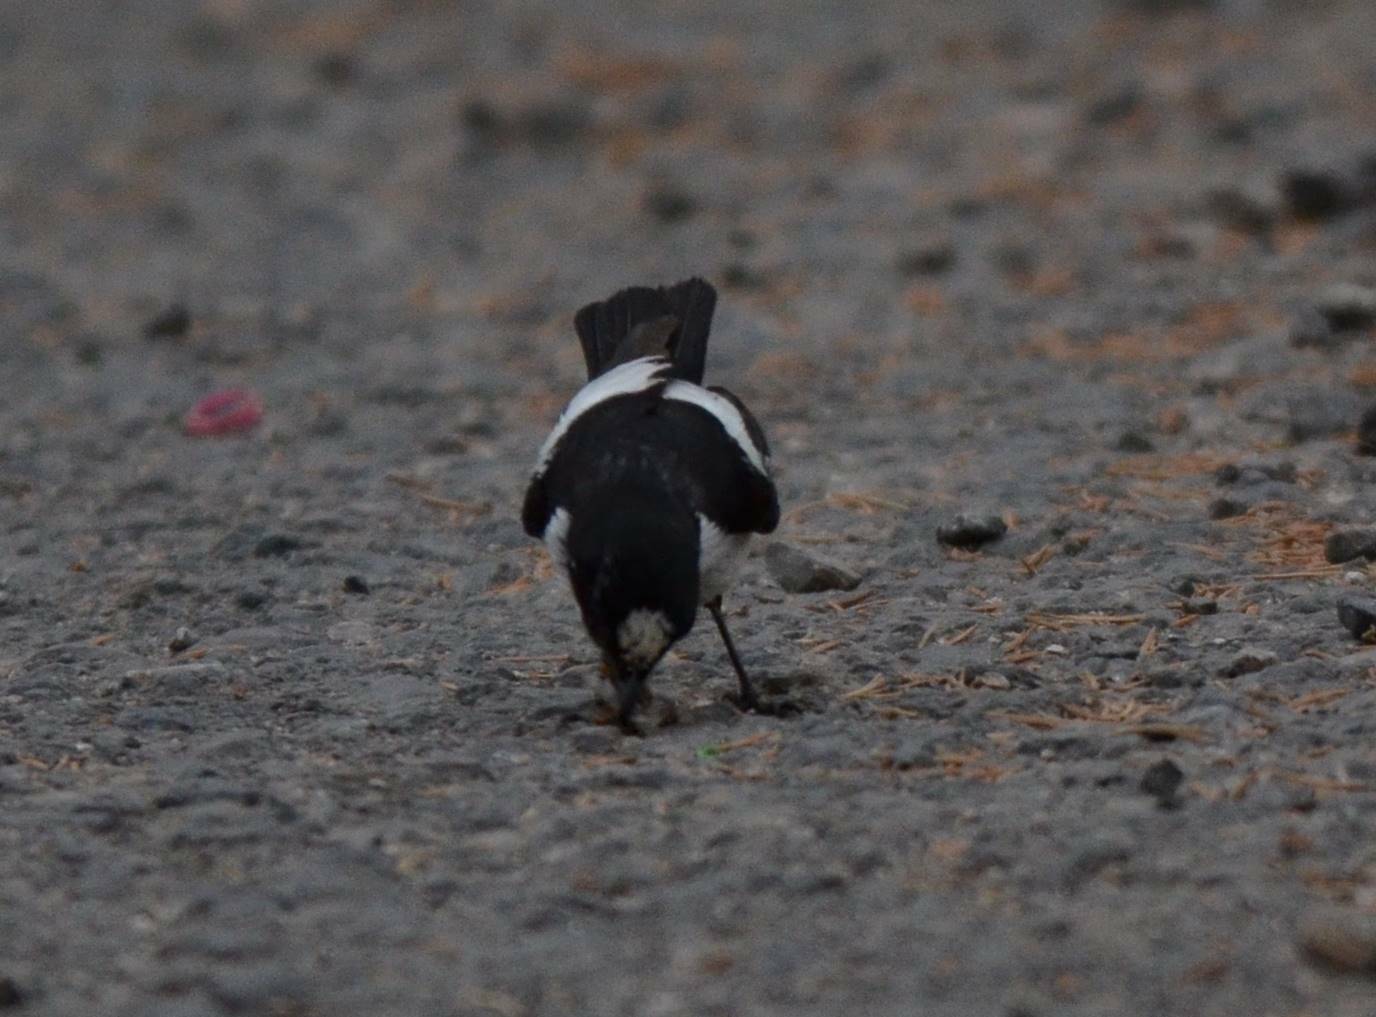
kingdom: Animalia
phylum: Chordata
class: Aves
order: Passeriformes
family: Muscicapidae
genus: Ficedula
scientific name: Ficedula speculigera
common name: Atlas pied flycatcher
